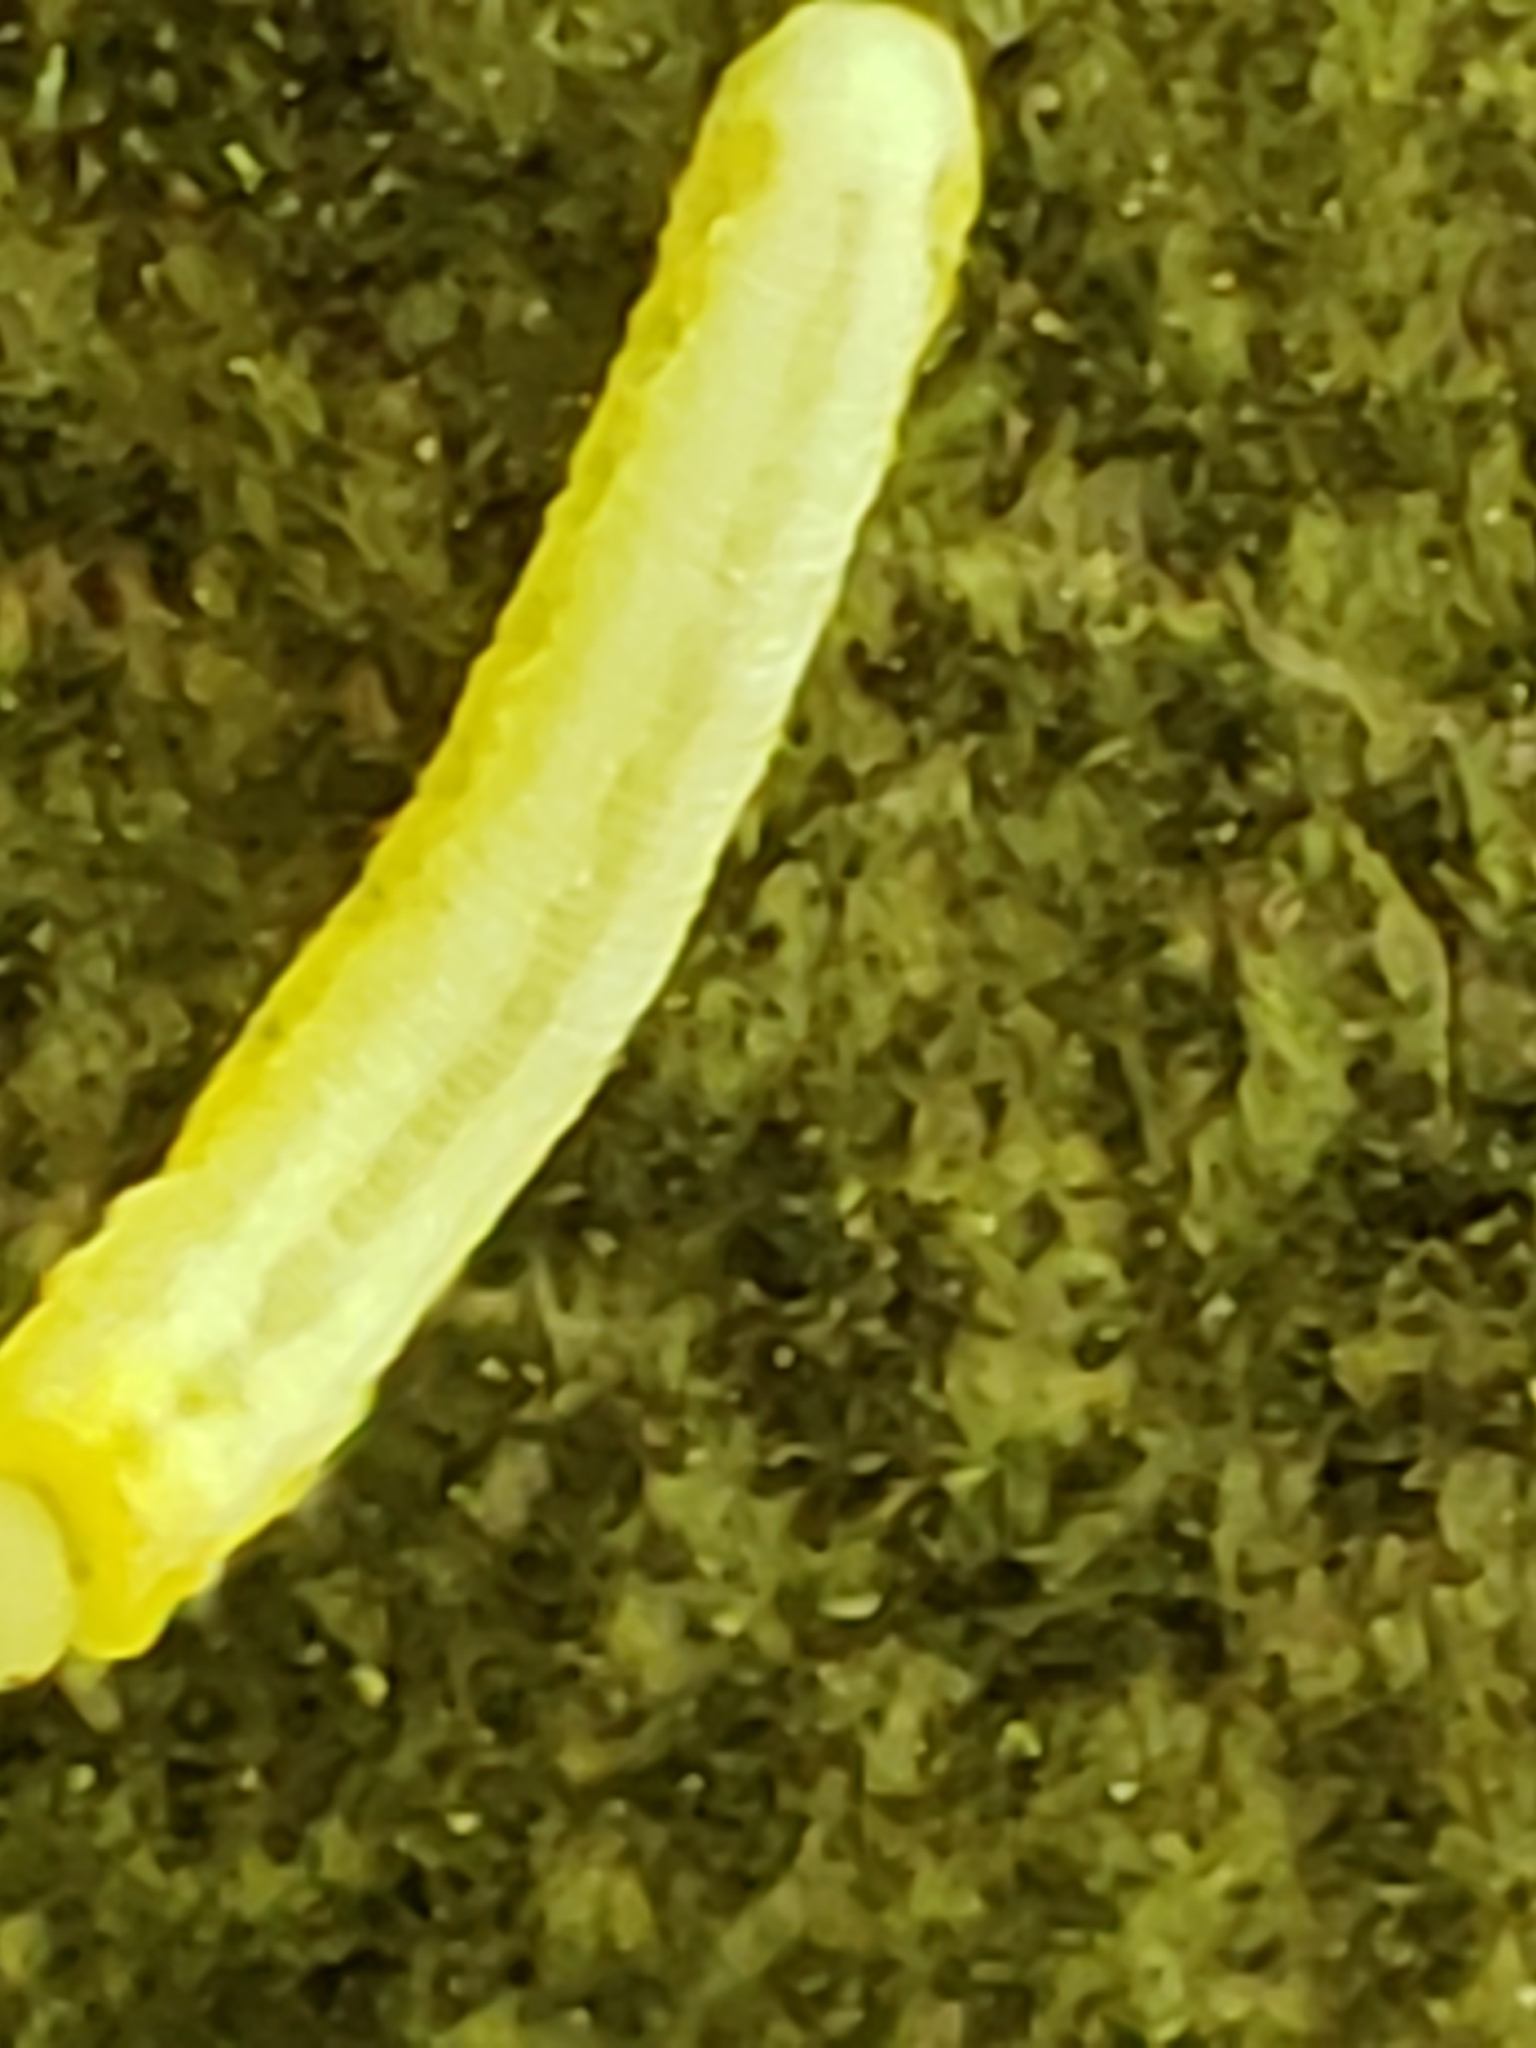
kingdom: Animalia
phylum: Arthropoda
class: Insecta
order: Hymenoptera
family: Tenthredinidae
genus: Tomostethus
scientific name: Tomostethus multicinctus
